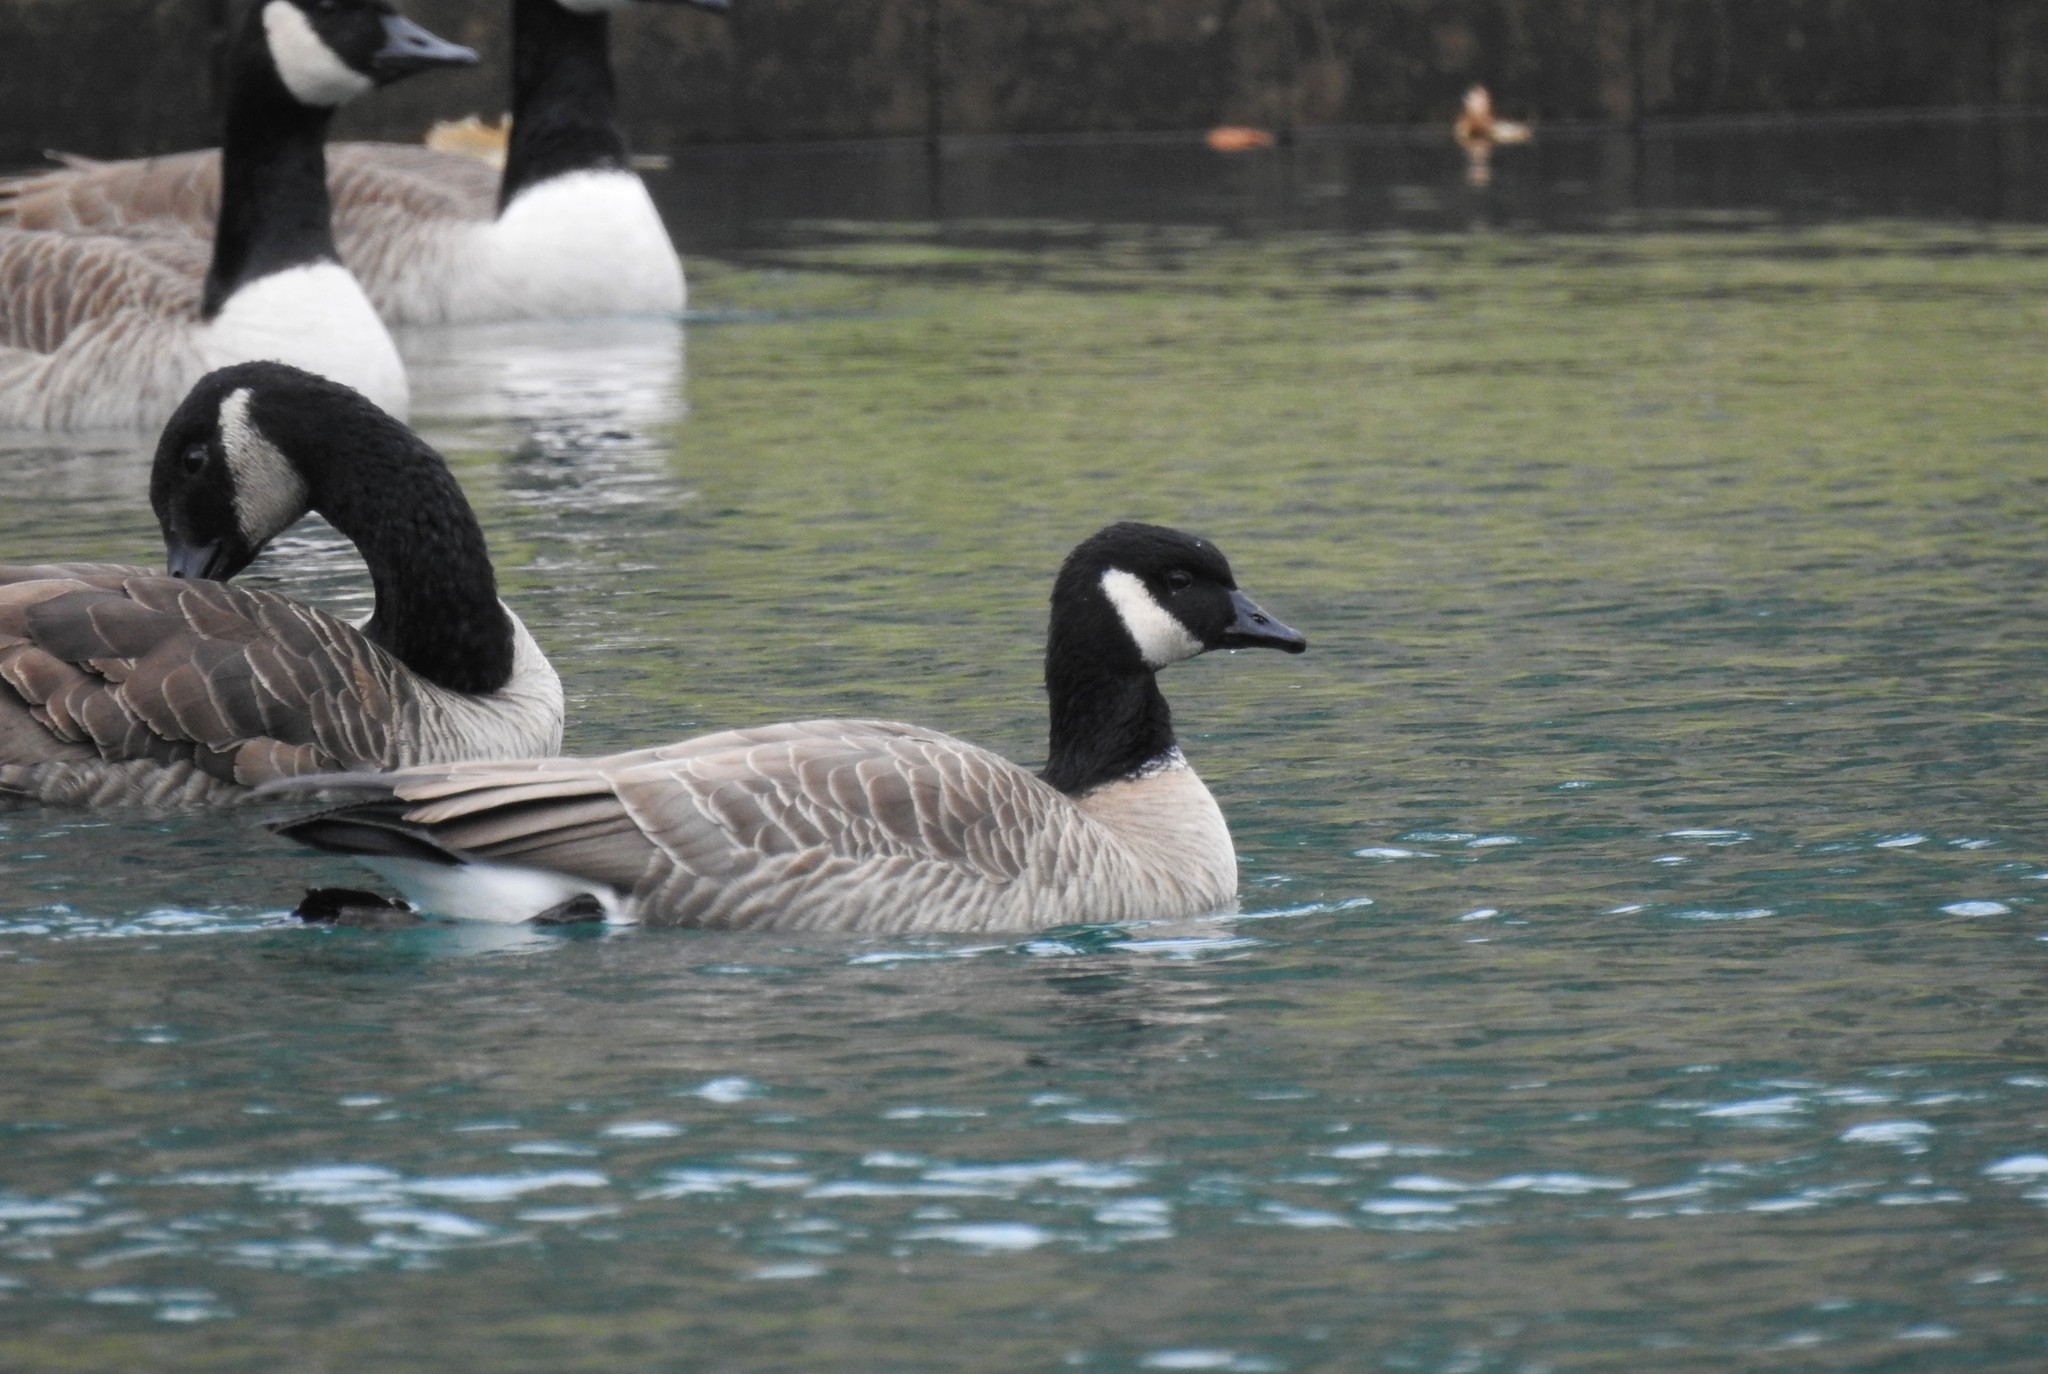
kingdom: Animalia
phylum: Chordata
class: Aves
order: Anseriformes
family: Anatidae
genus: Branta
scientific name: Branta hutchinsii
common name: Cackling goose
